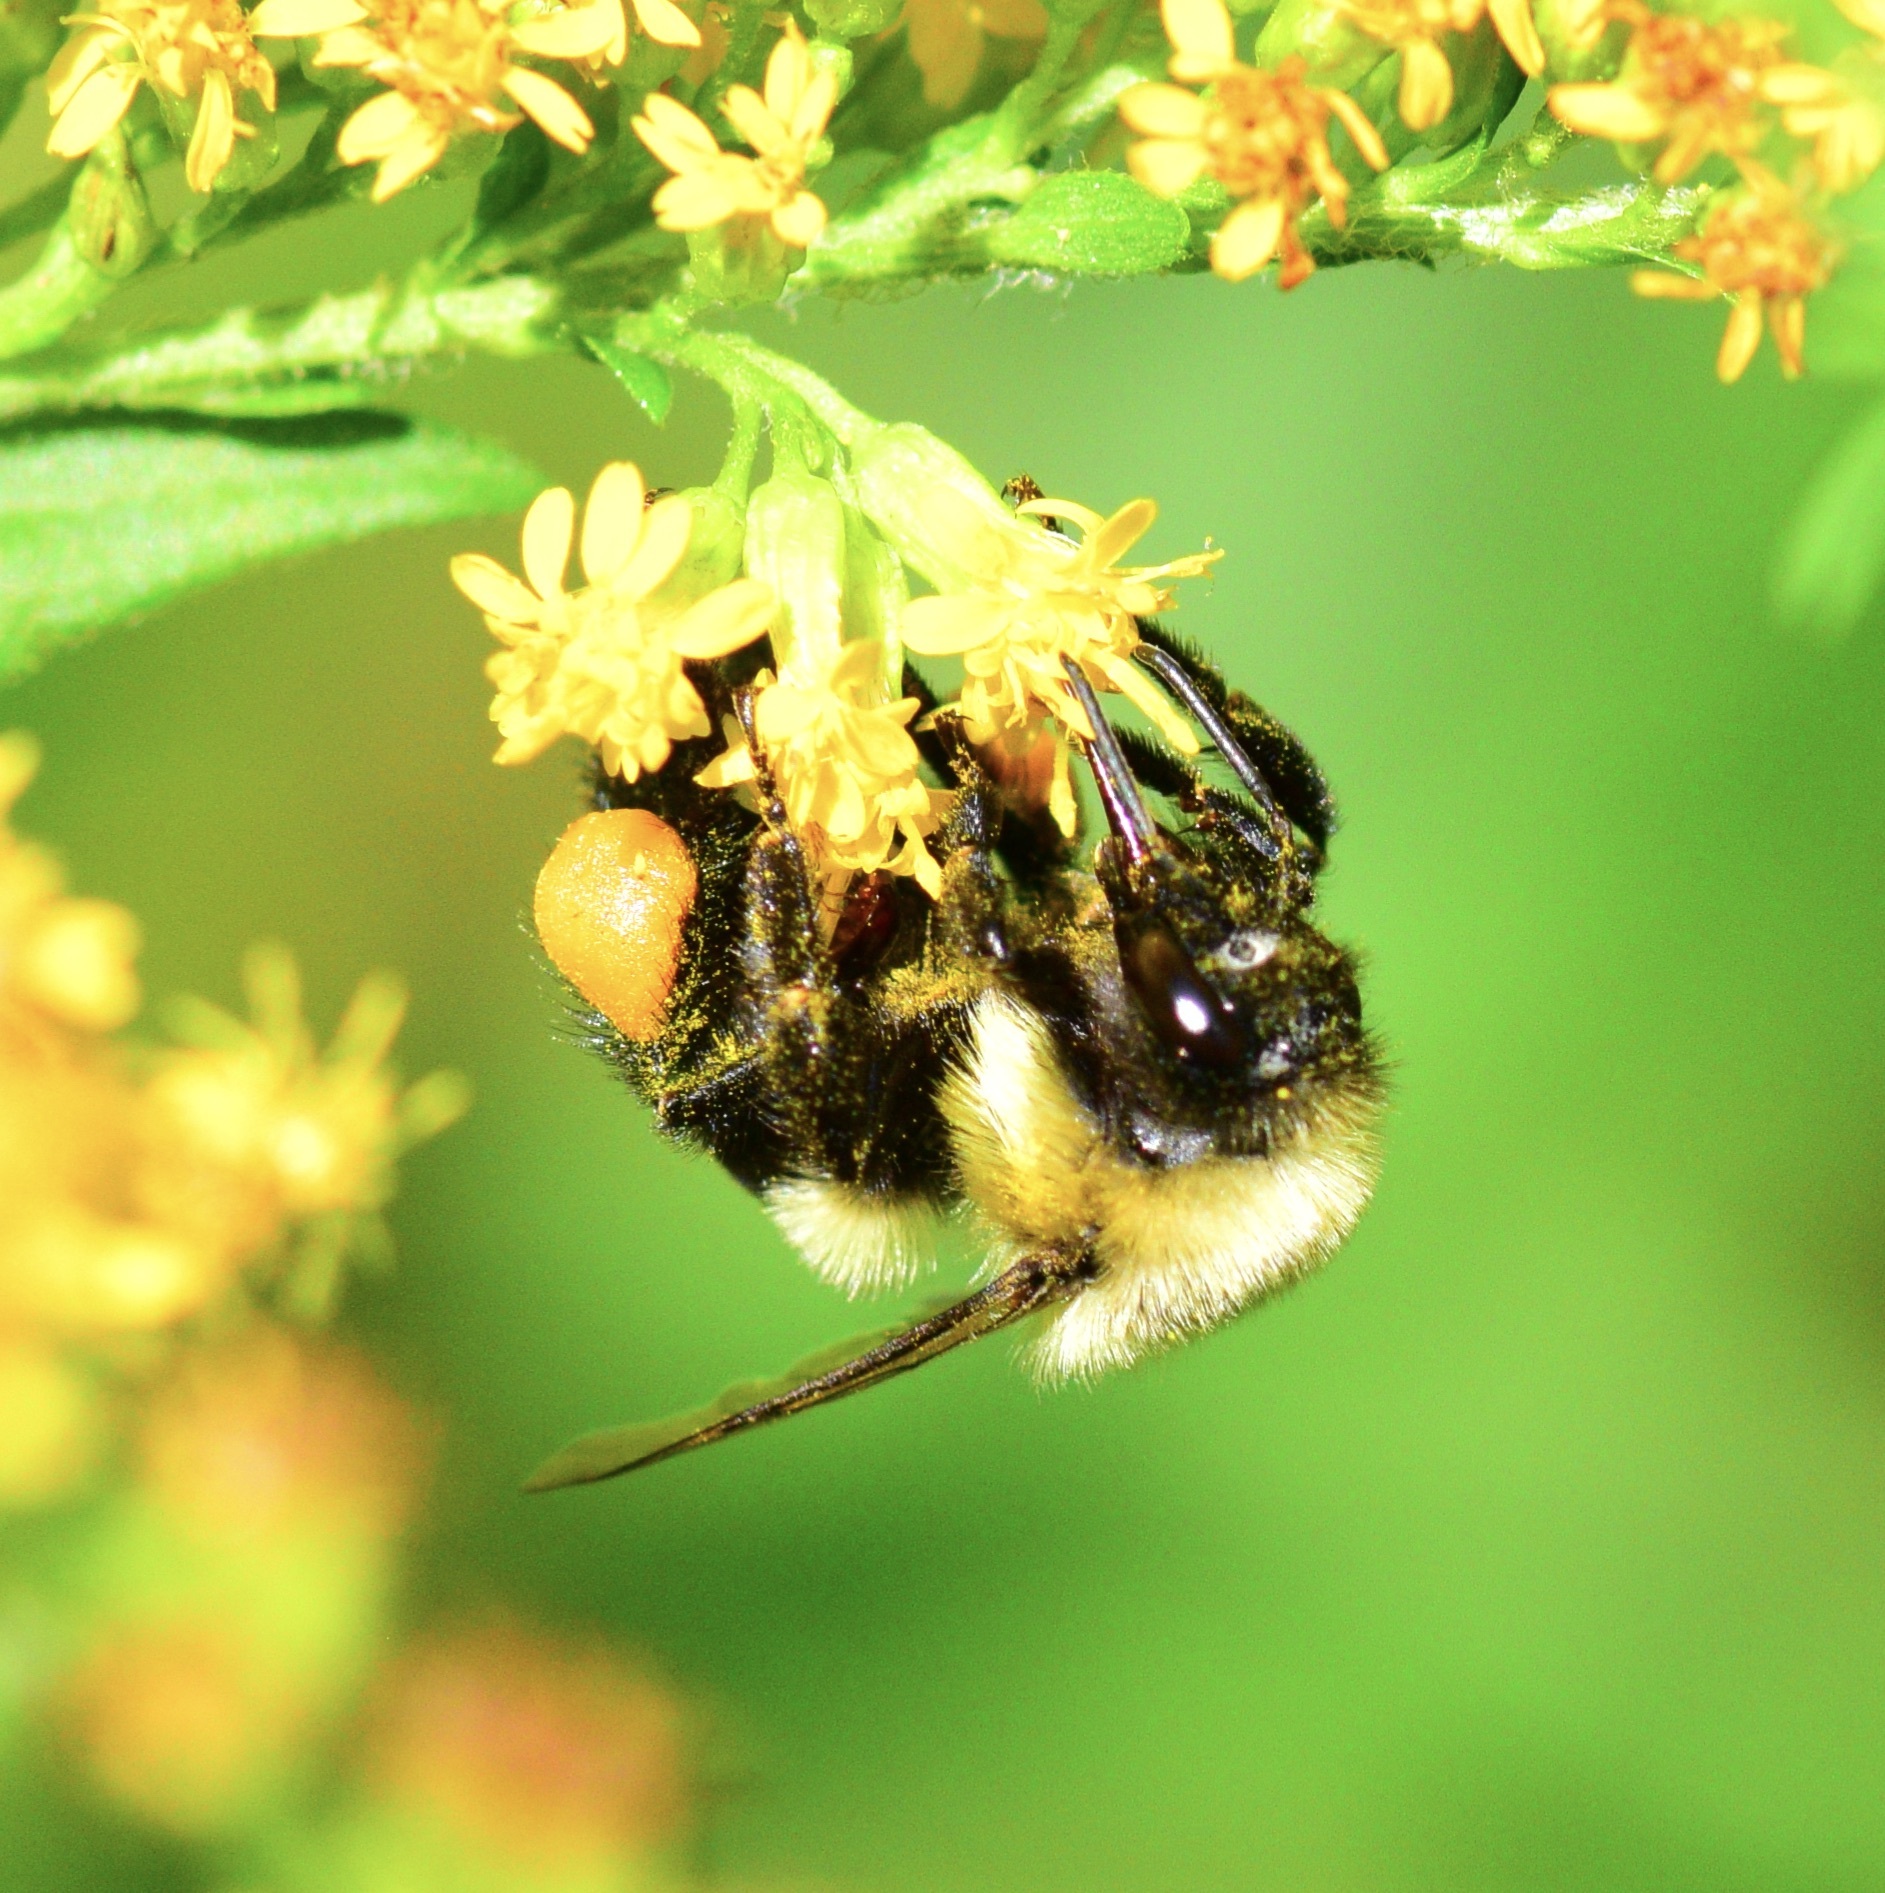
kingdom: Animalia
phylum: Arthropoda
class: Insecta
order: Hymenoptera
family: Apidae
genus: Bombus
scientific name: Bombus impatiens
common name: Common eastern bumble bee
